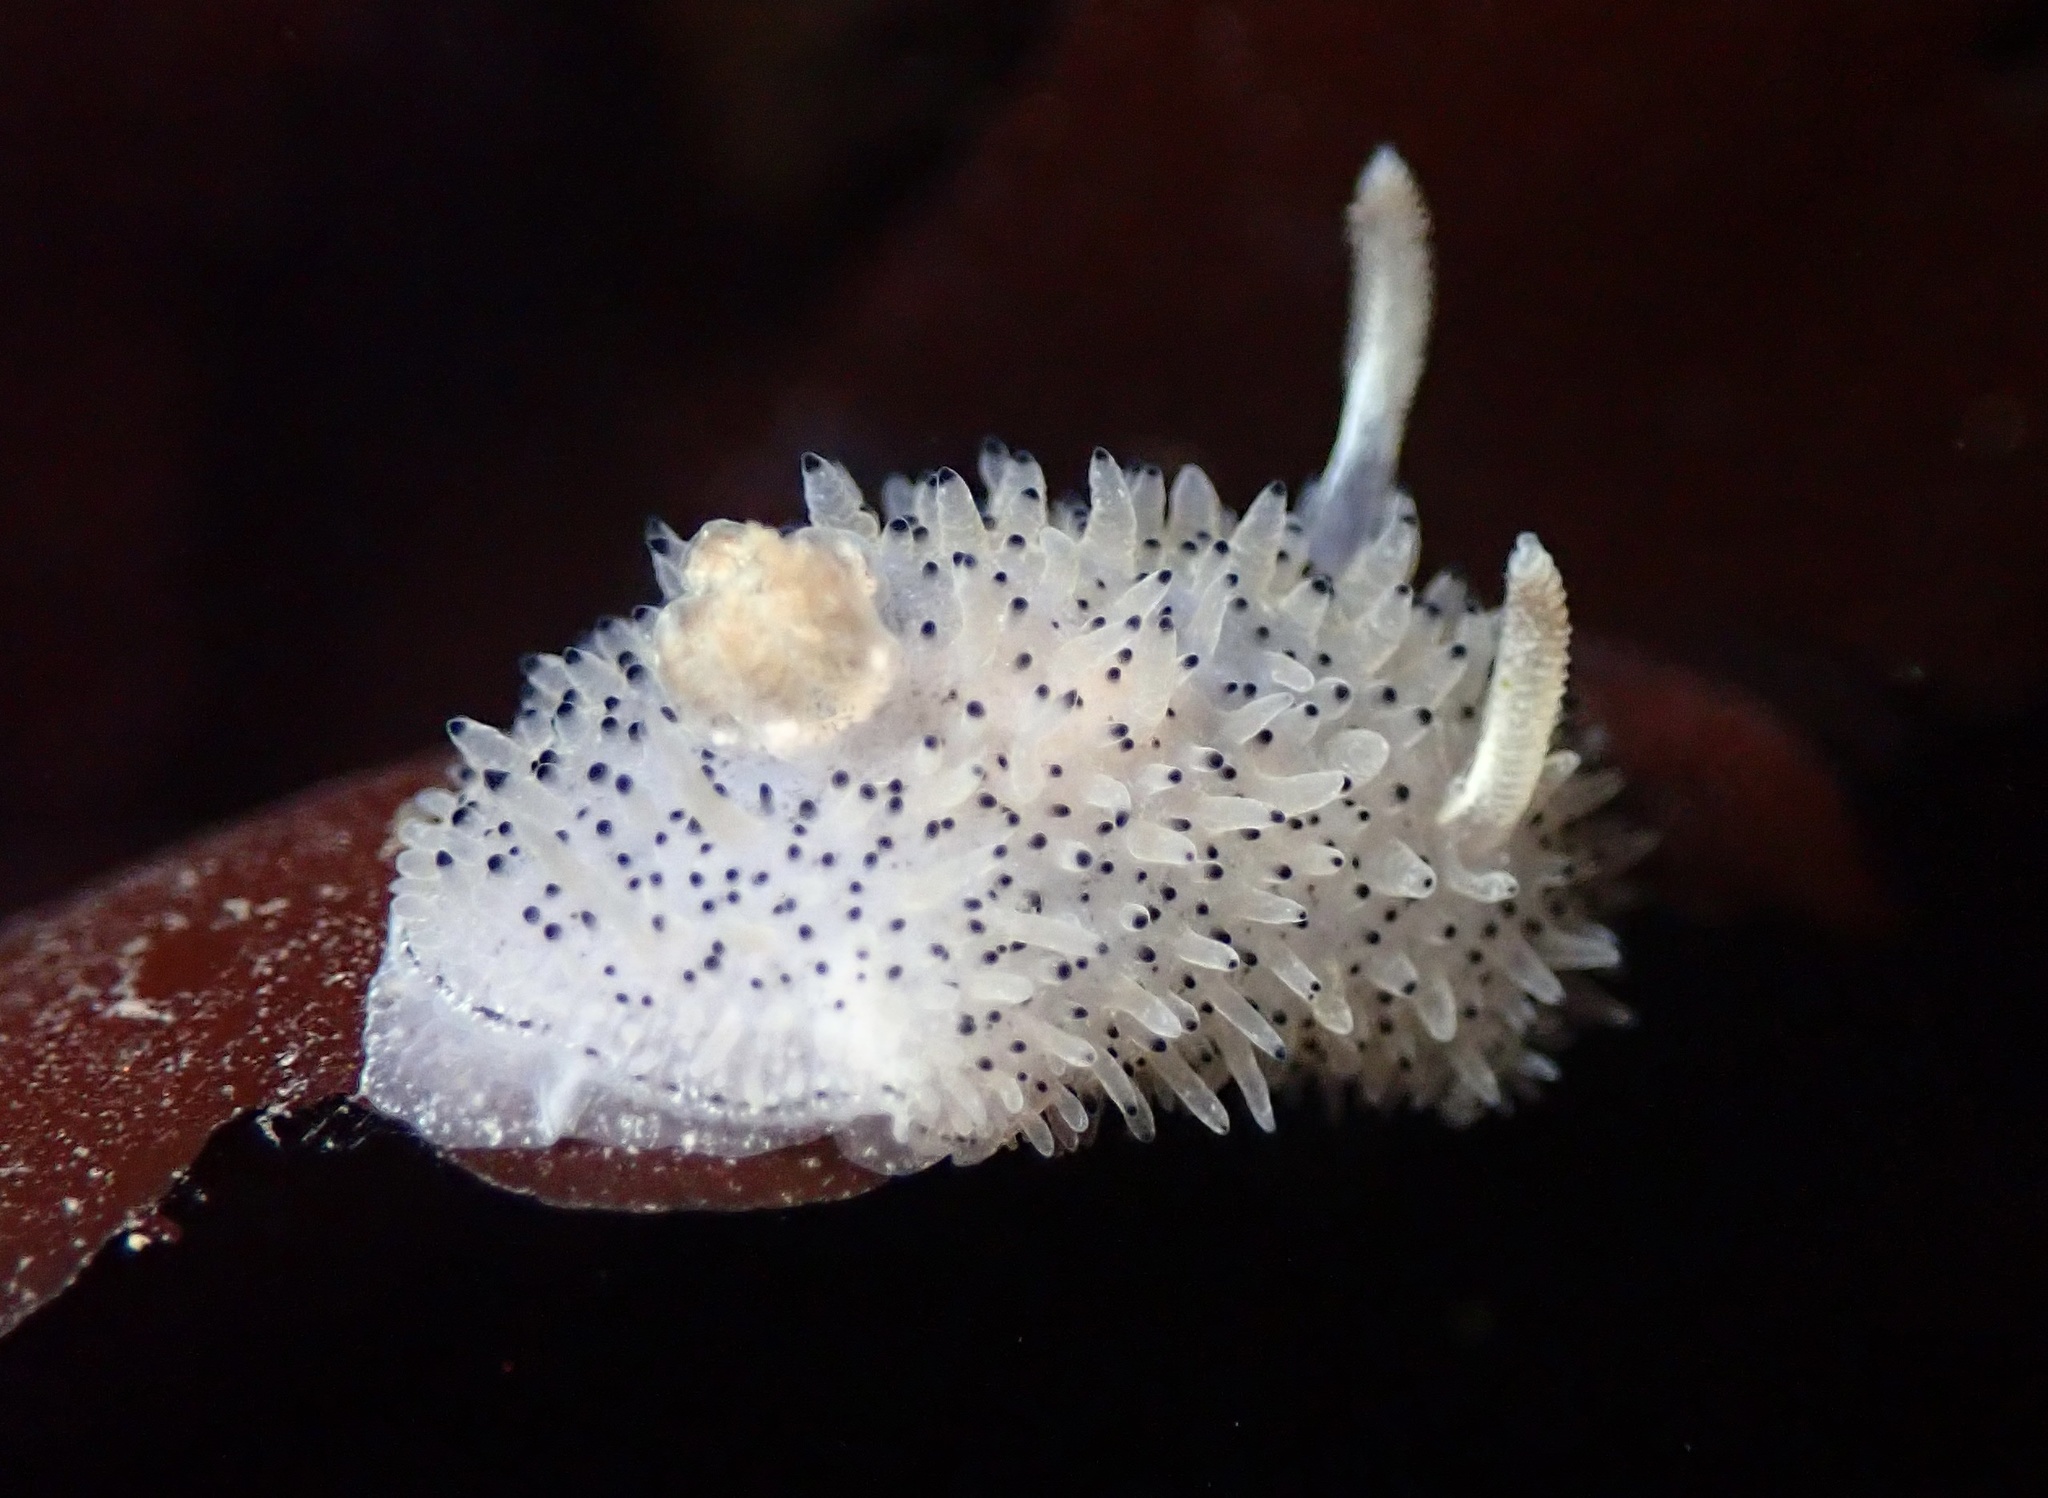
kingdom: Animalia
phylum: Mollusca
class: Gastropoda
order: Nudibranchia
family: Onchidorididae
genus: Acanthodoris
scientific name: Acanthodoris rhodoceras
